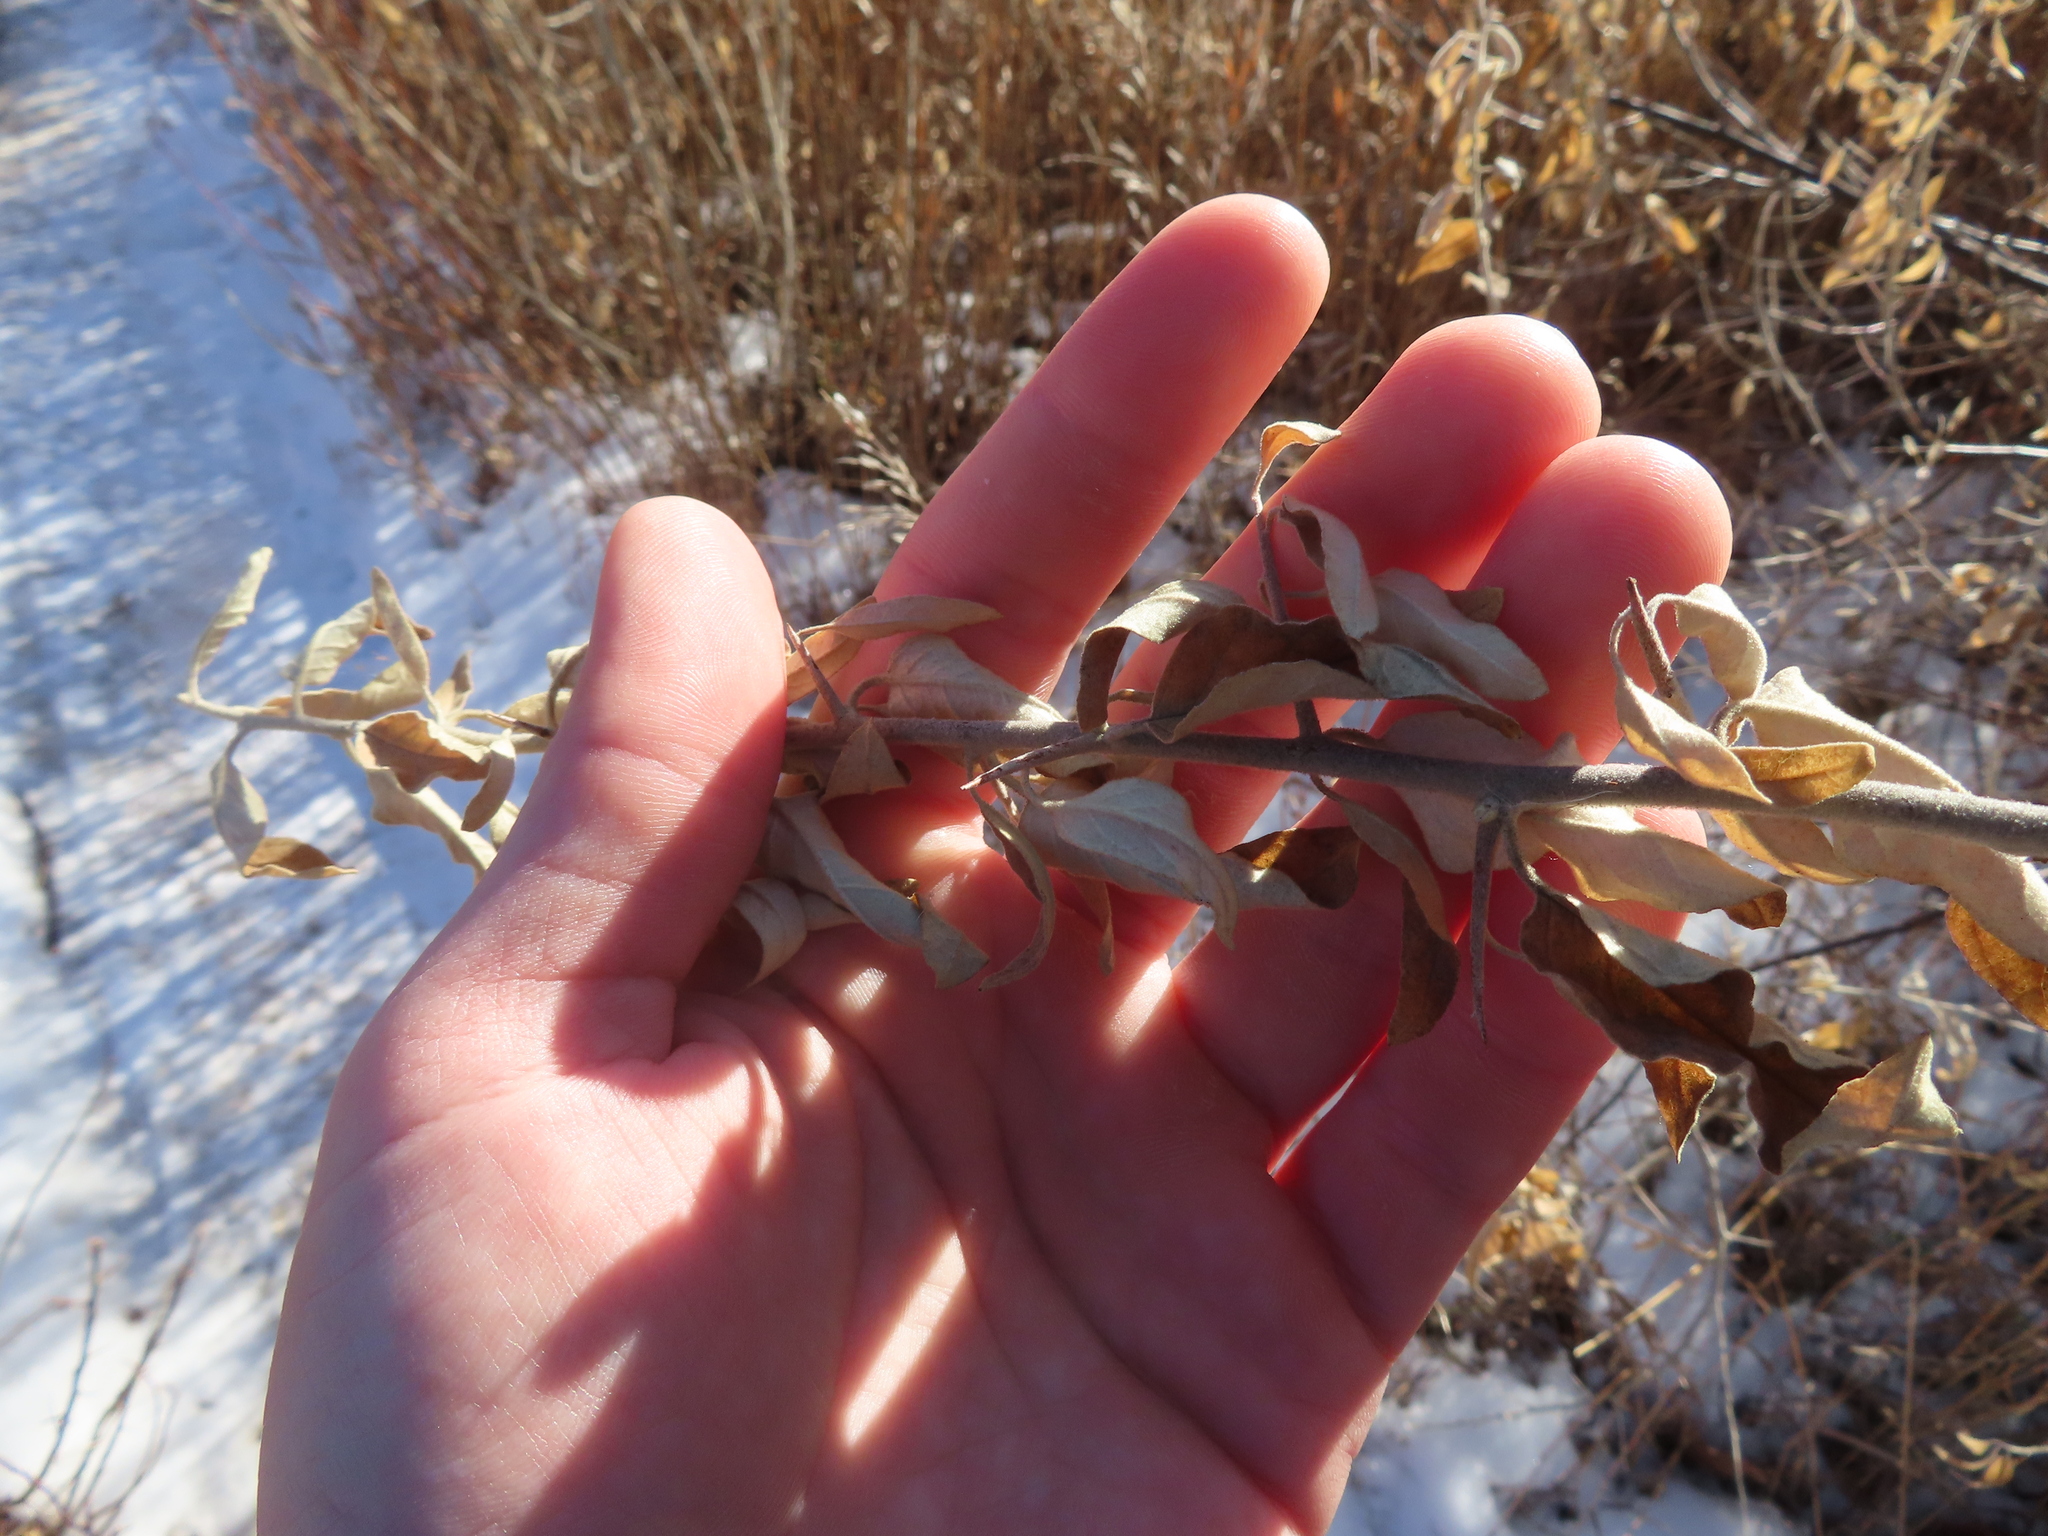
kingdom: Plantae
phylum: Tracheophyta
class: Magnoliopsida
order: Rosales
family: Elaeagnaceae
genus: Elaeagnus
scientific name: Elaeagnus angustifolia
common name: Russian olive
